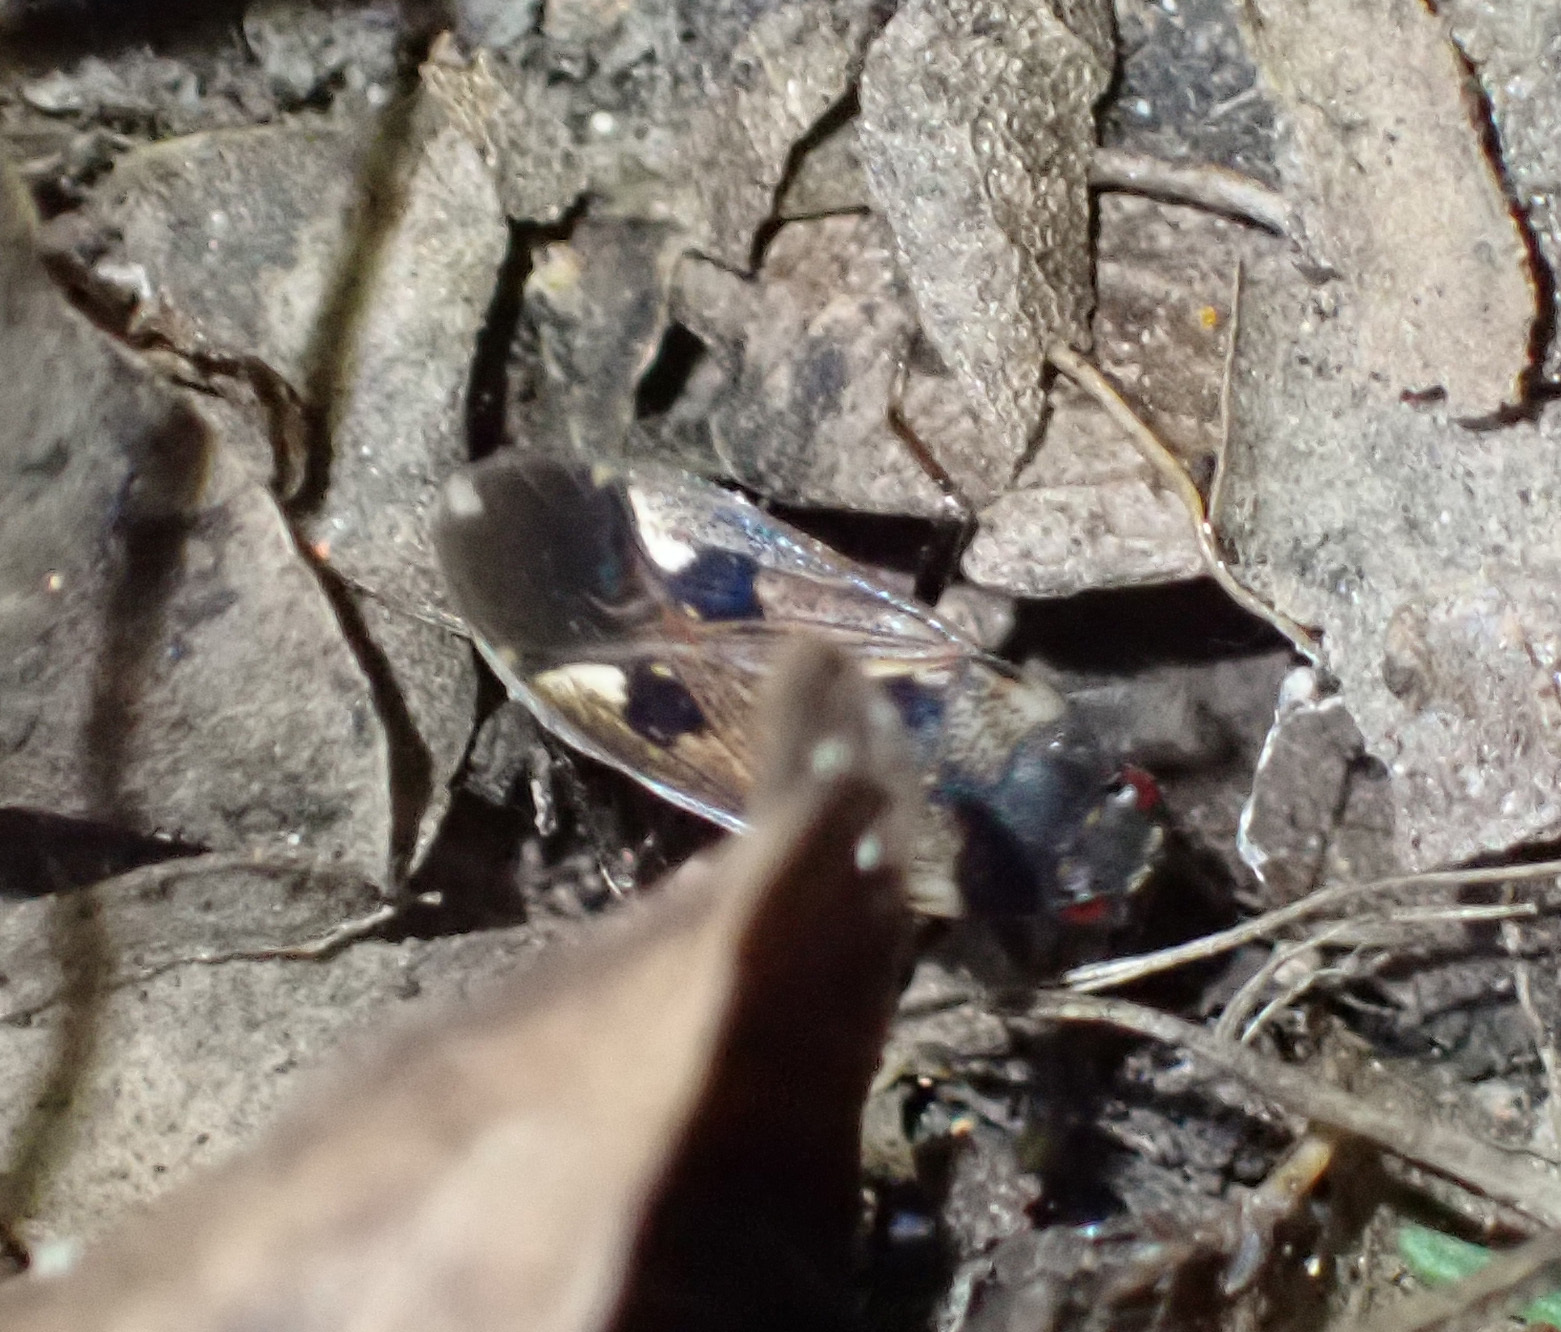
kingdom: Animalia
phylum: Arthropoda
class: Insecta
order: Hemiptera
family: Rhyparochromidae
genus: Rhyparochromus
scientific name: Rhyparochromus vulgaris
